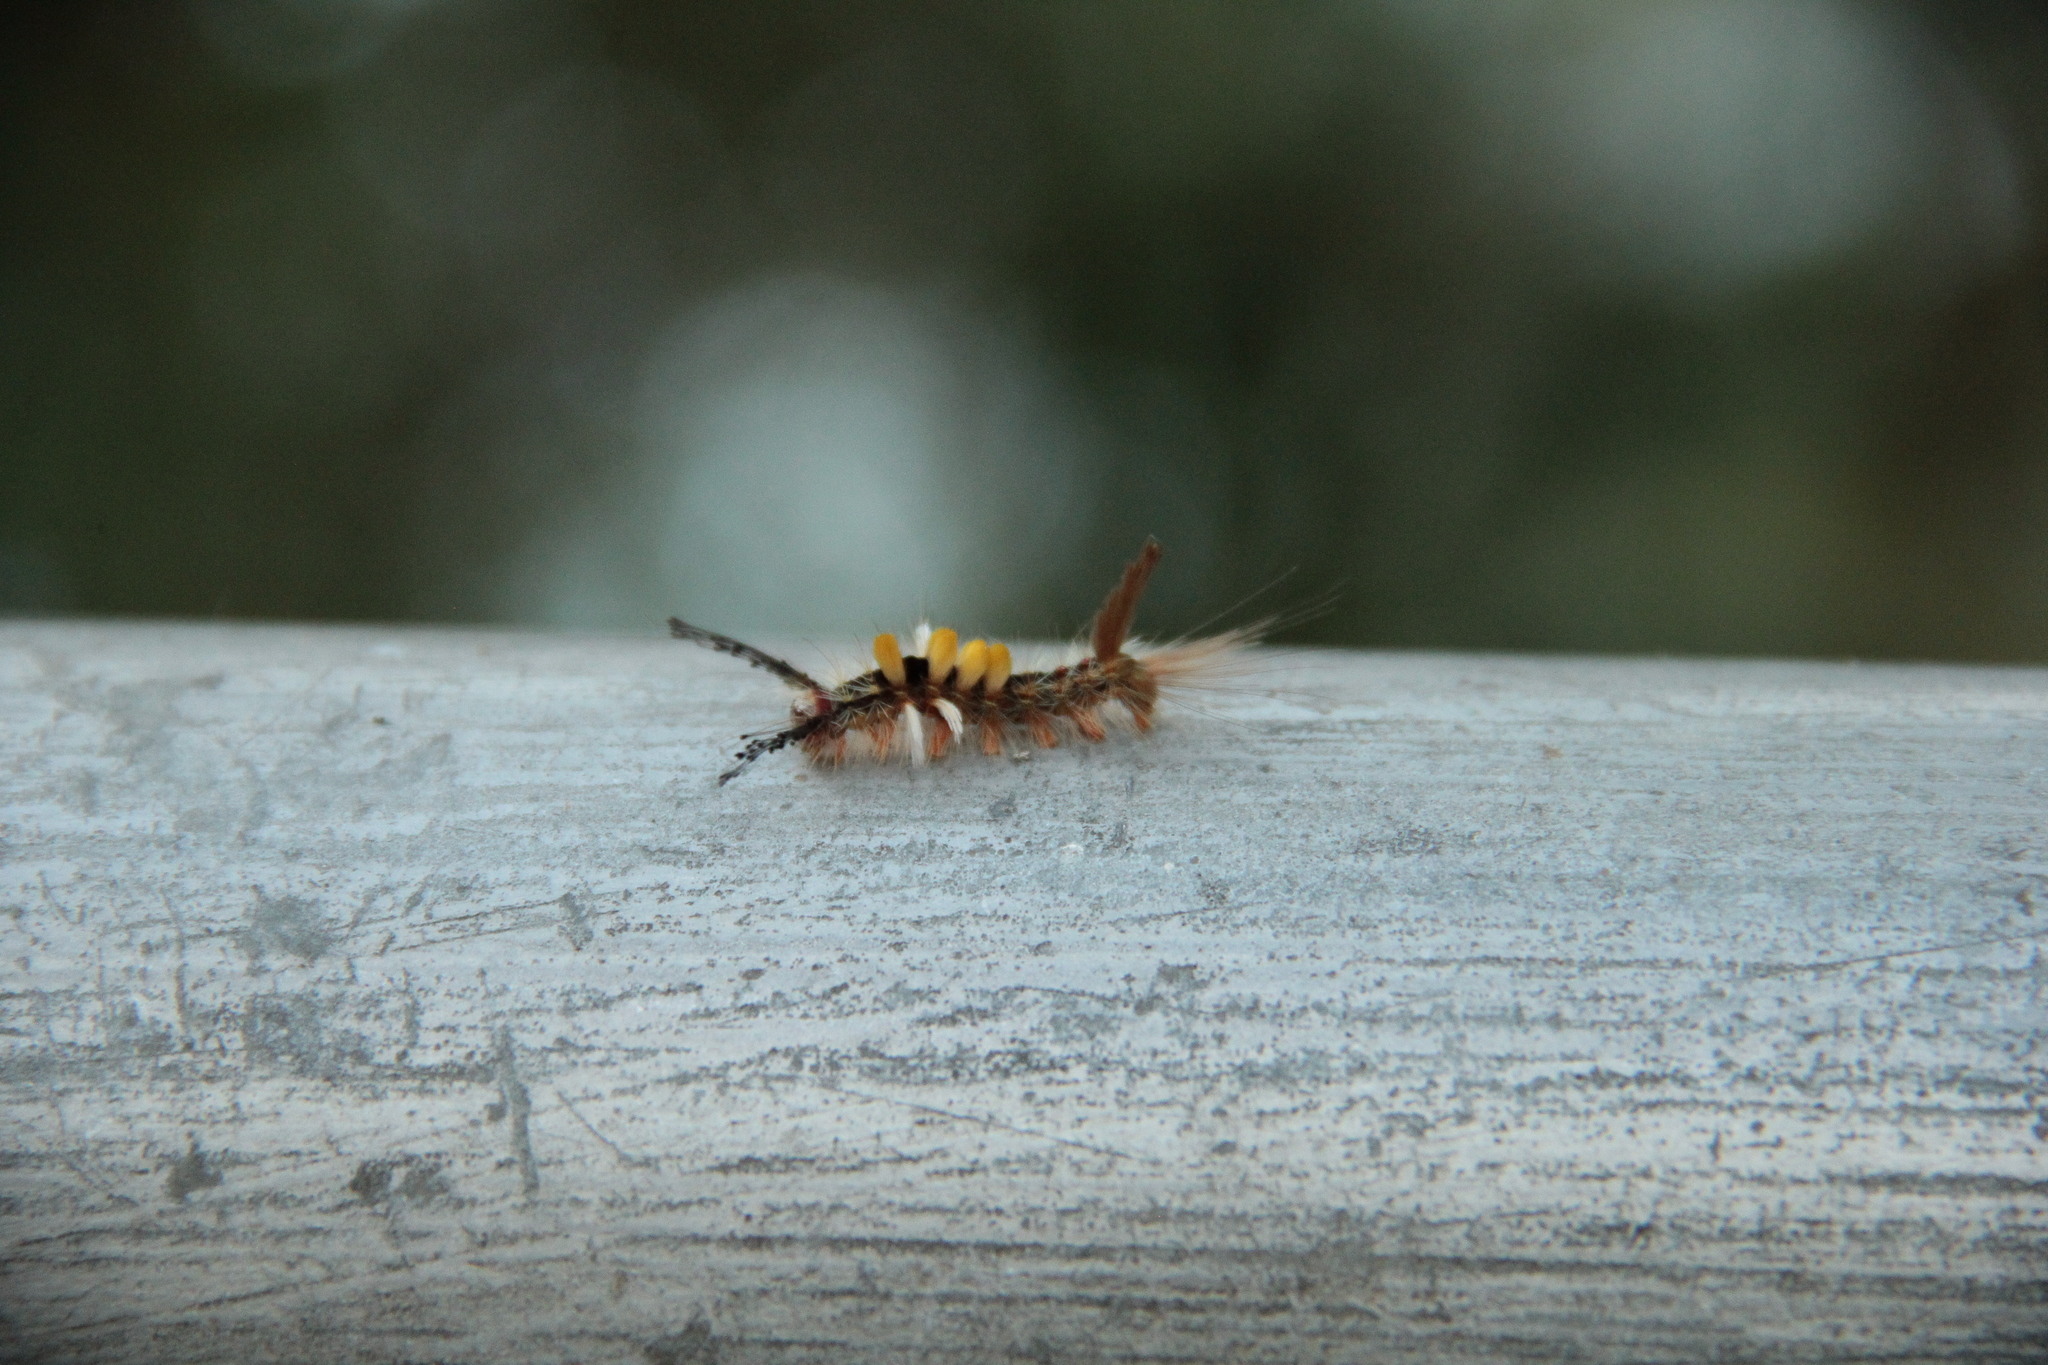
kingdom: Animalia
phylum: Arthropoda
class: Insecta
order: Lepidoptera
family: Erebidae
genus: Orgyia
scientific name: Orgyia postica
